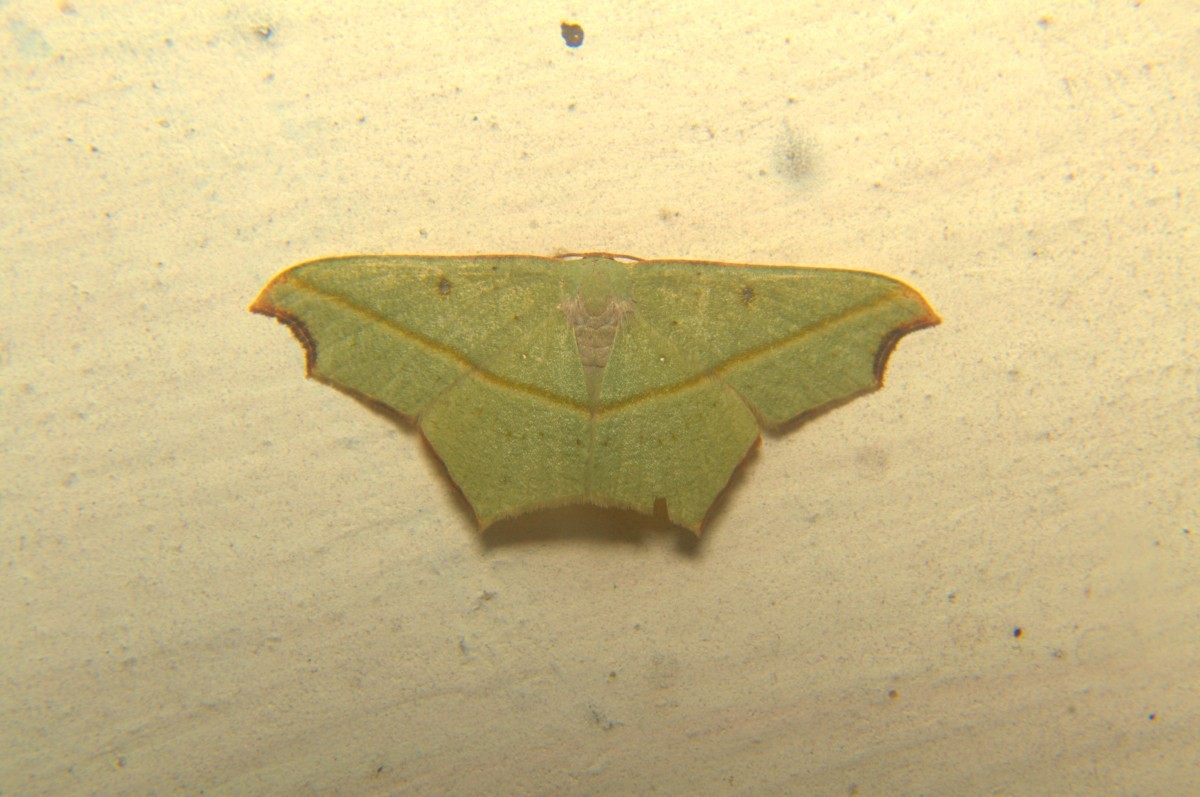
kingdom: Animalia
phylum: Arthropoda
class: Insecta
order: Lepidoptera
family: Geometridae
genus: Traminda
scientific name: Traminda aventiaria
